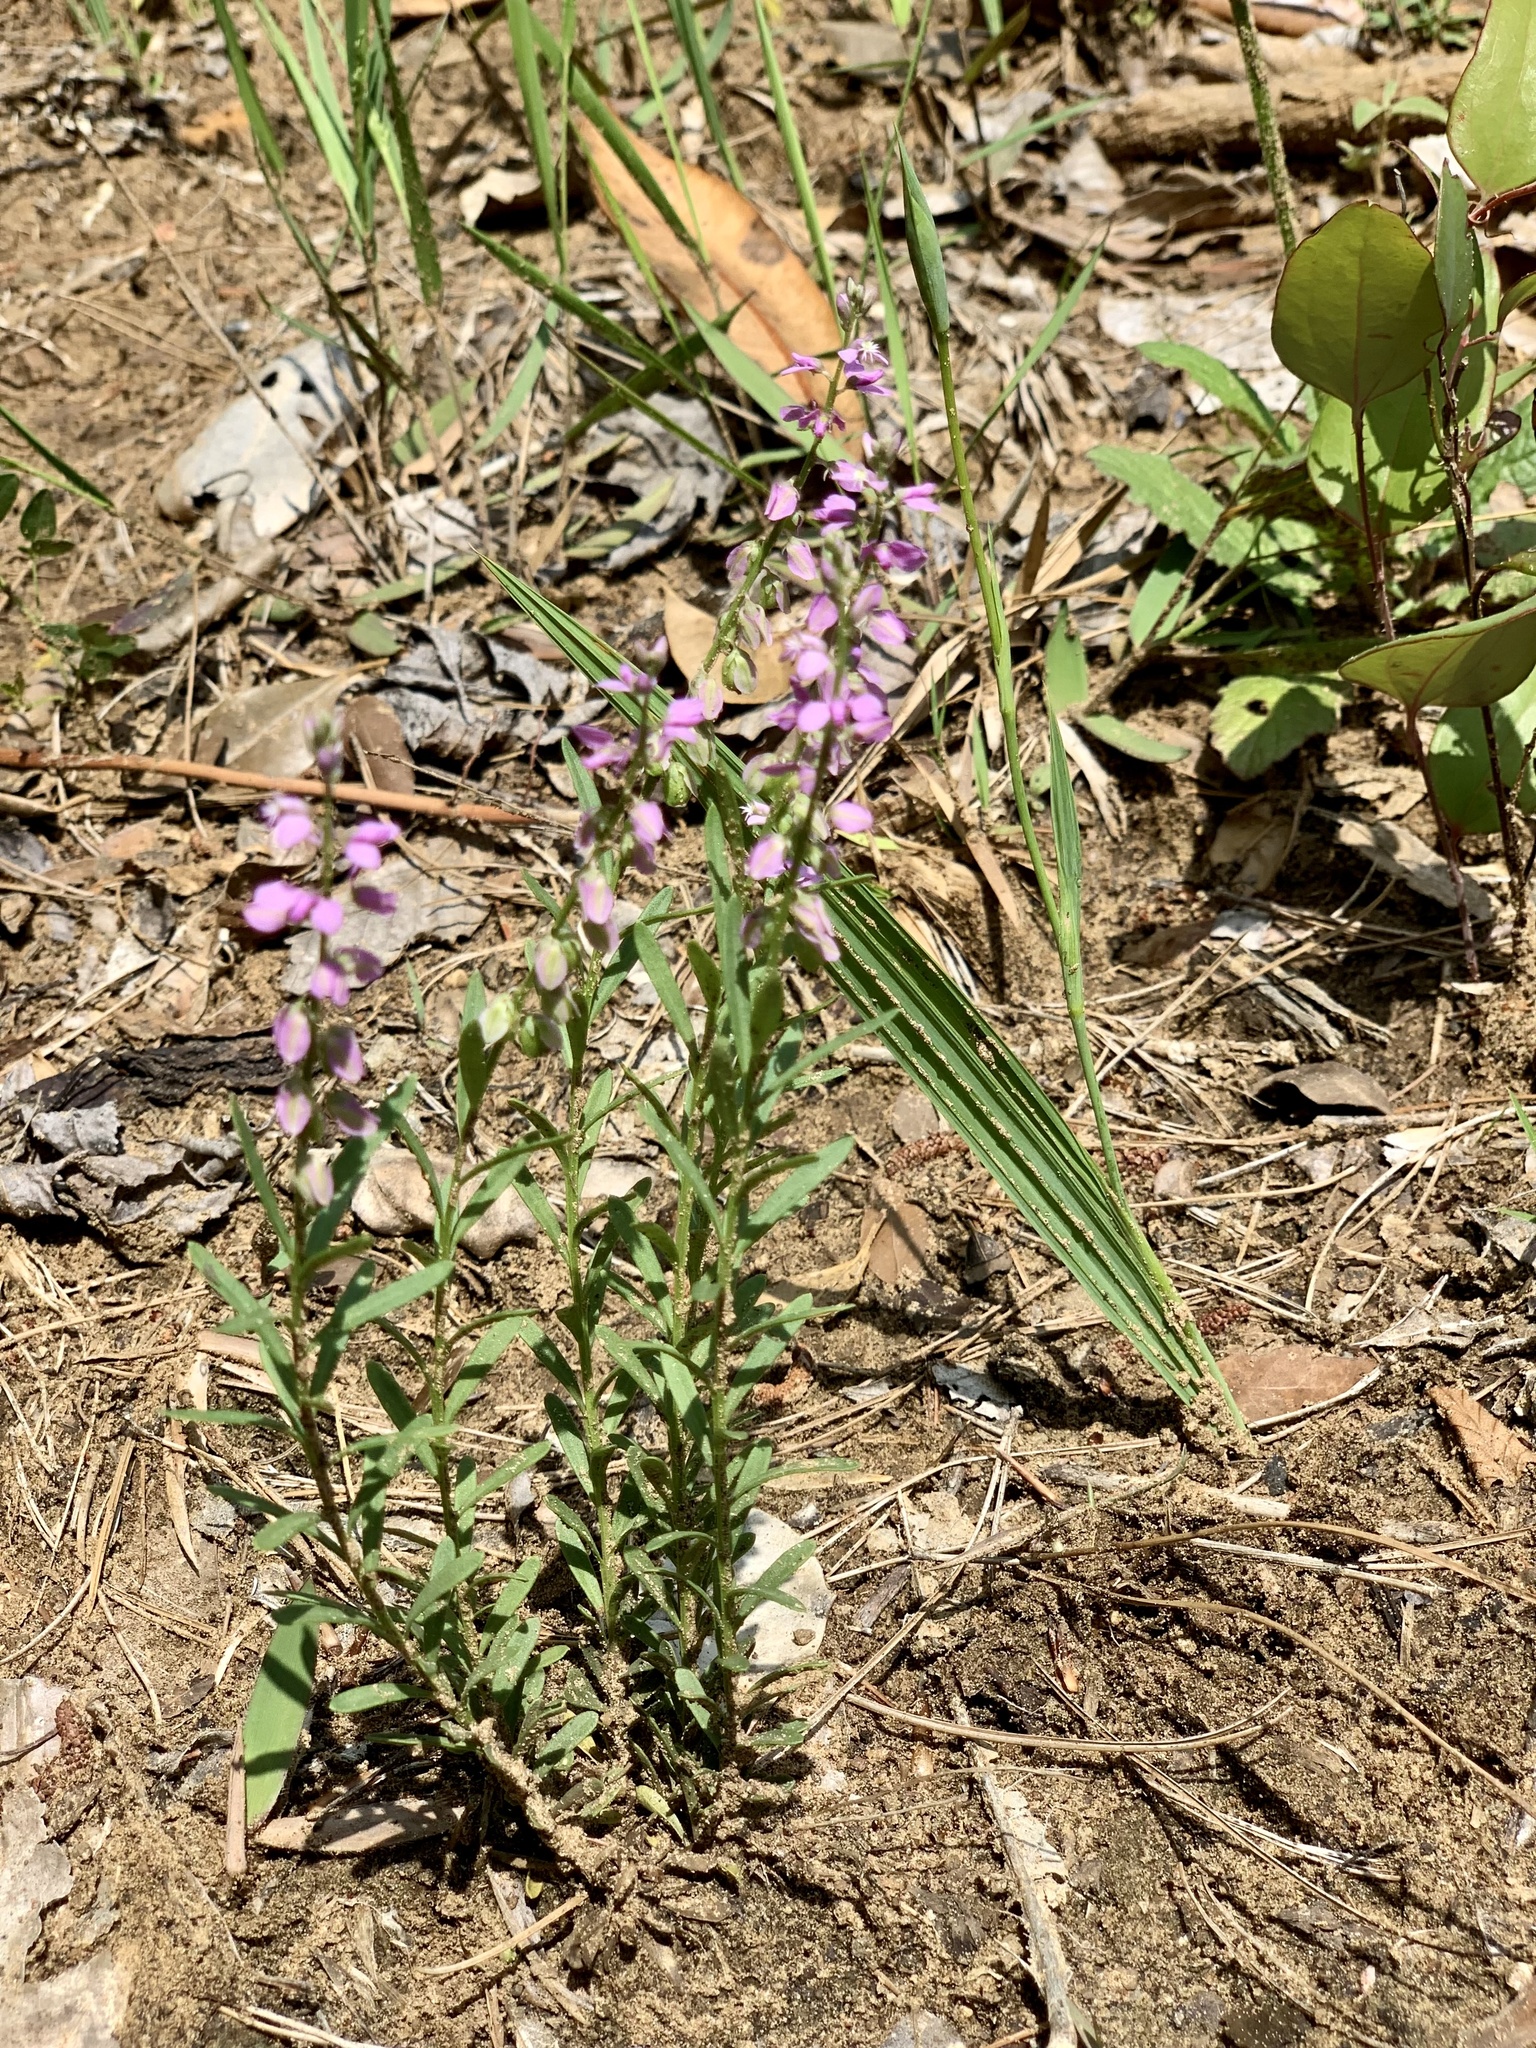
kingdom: Plantae
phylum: Tracheophyta
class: Magnoliopsida
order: Fabales
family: Polygalaceae
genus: Polygala
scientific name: Polygala polygama
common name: Bitter milkwort
